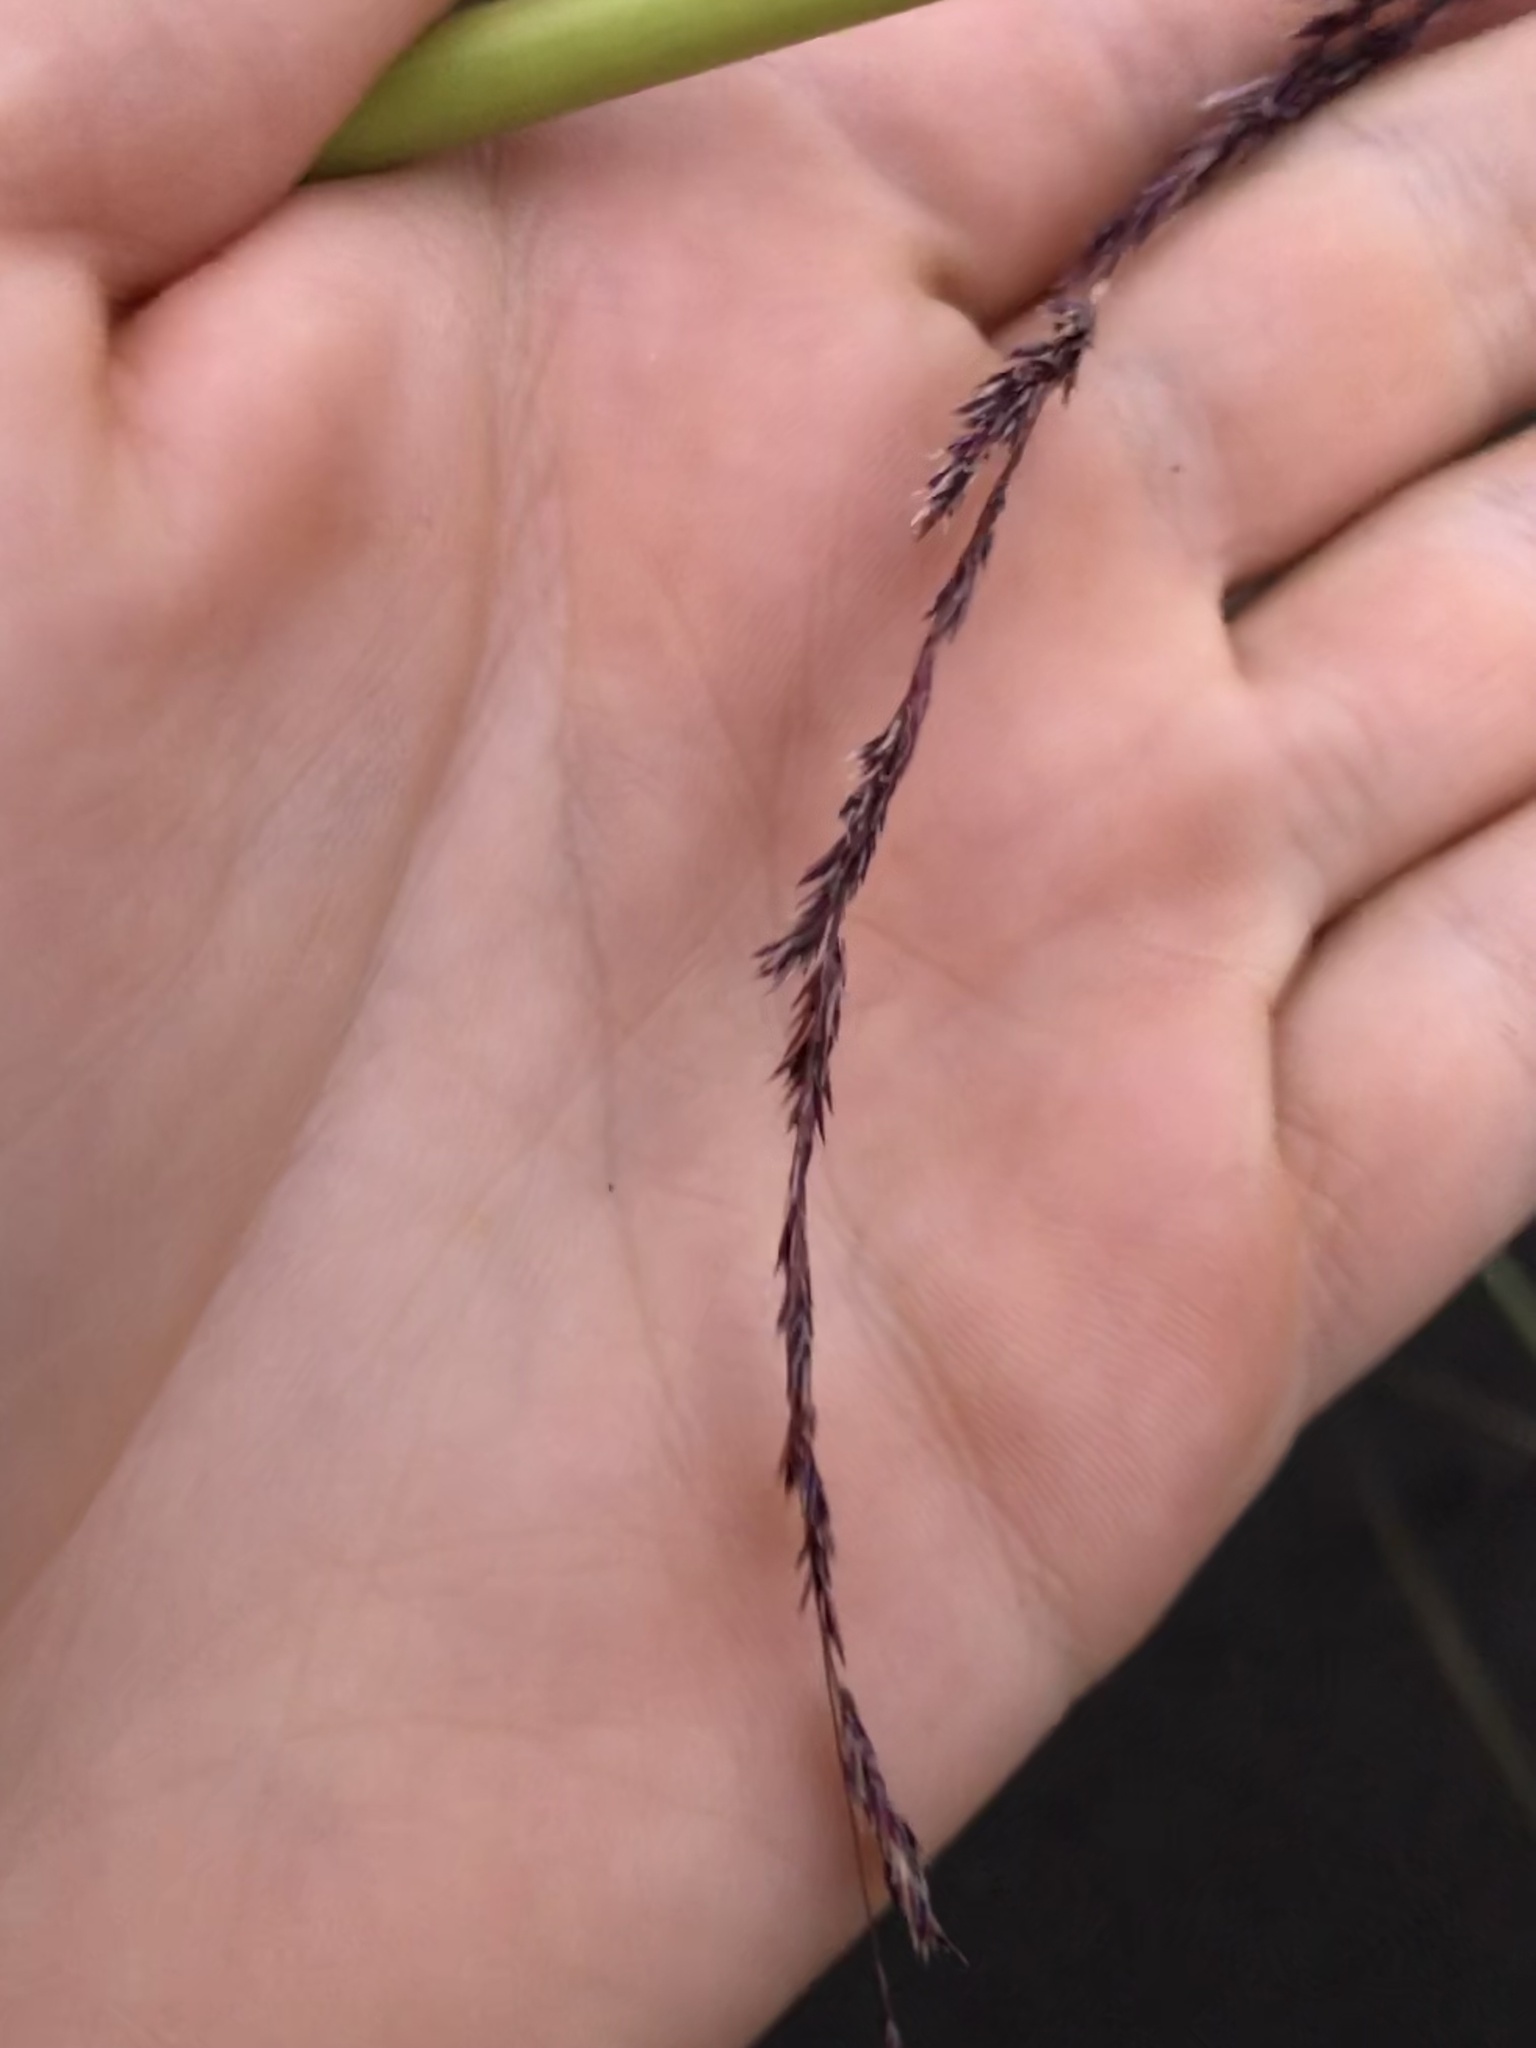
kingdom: Plantae
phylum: Tracheophyta
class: Liliopsida
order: Poales
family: Poaceae
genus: Gynerium
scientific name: Gynerium sagittatum
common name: Wild cane
